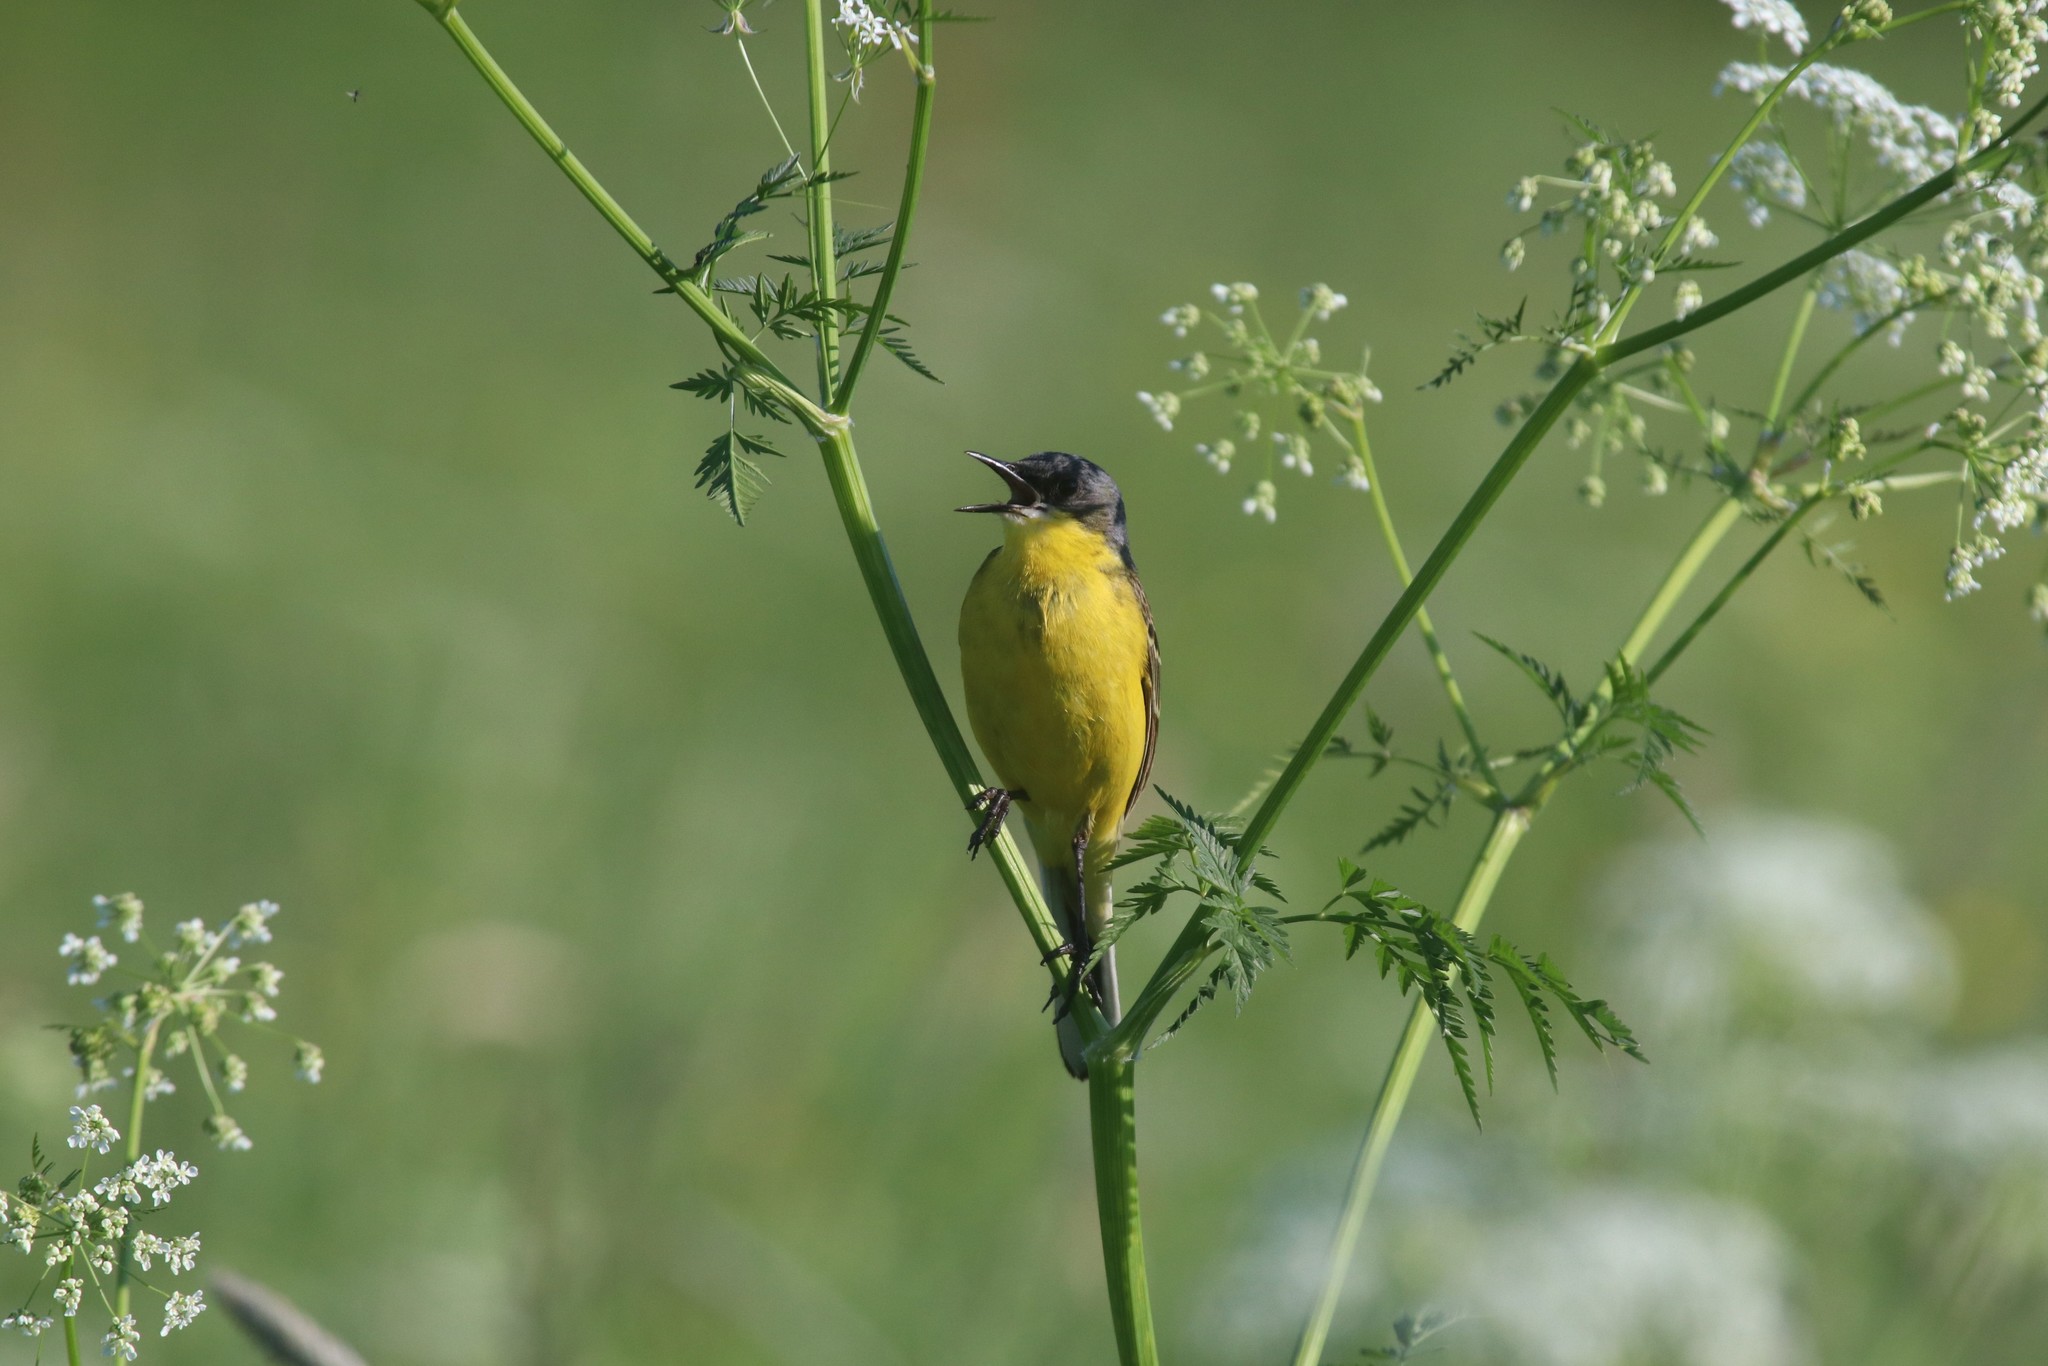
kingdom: Animalia
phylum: Chordata
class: Aves
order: Passeriformes
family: Motacillidae
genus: Motacilla
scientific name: Motacilla flava
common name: Western yellow wagtail
